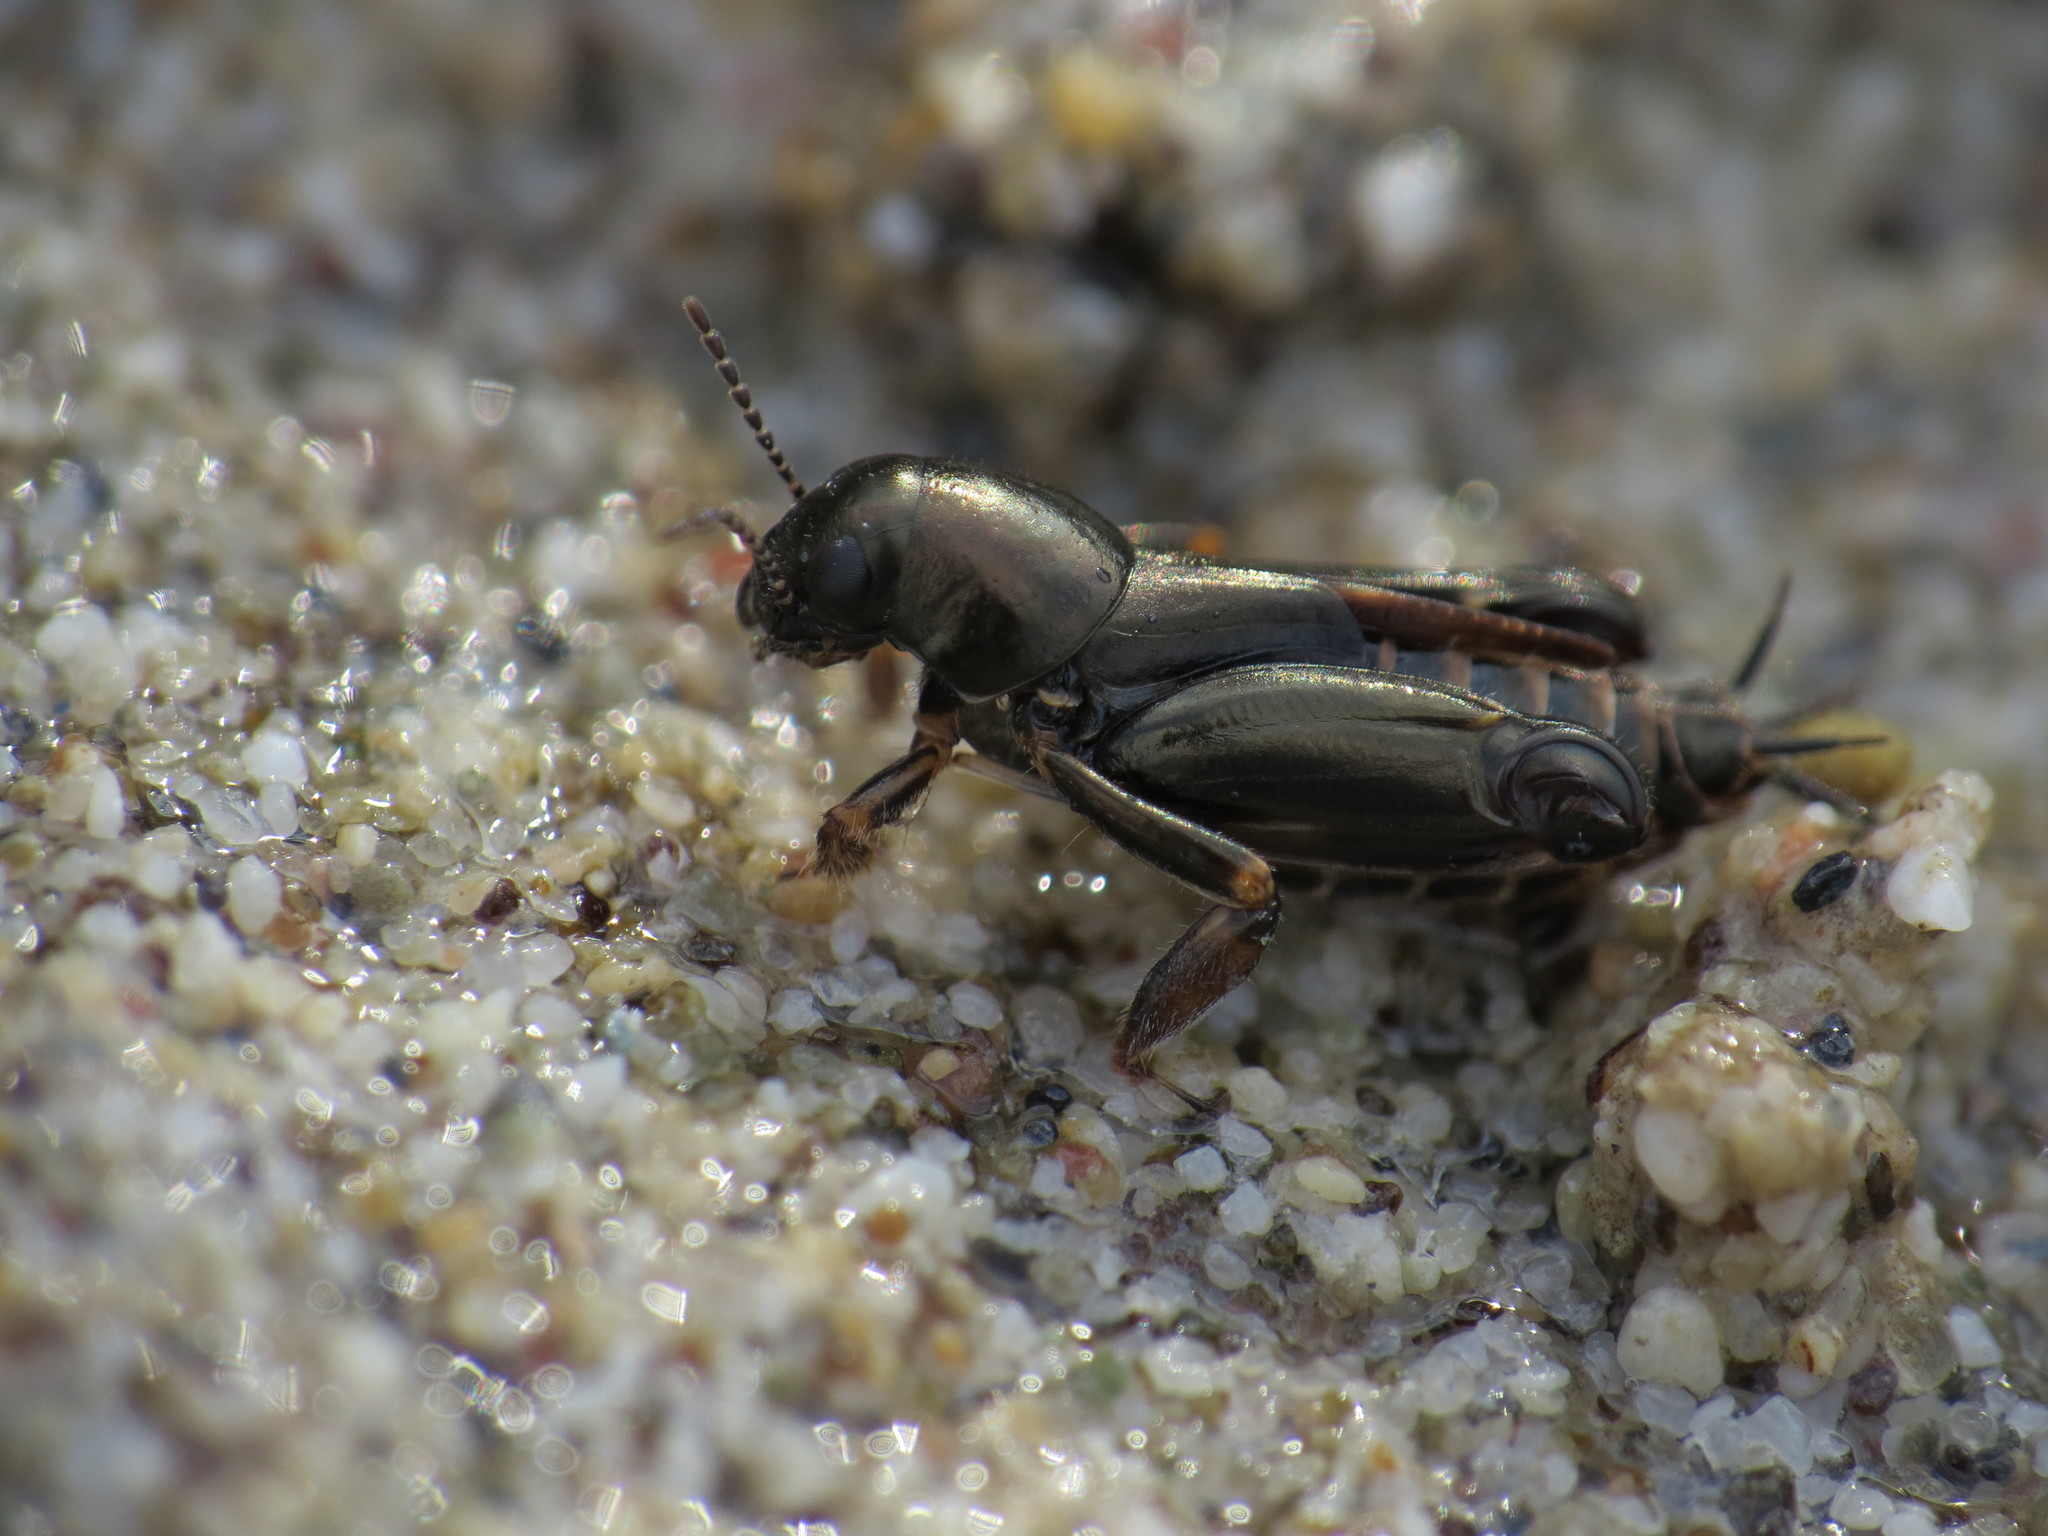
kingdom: Animalia
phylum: Arthropoda
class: Insecta
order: Orthoptera
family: Tridactylidae
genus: Xya
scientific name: Xya pfaendleri
